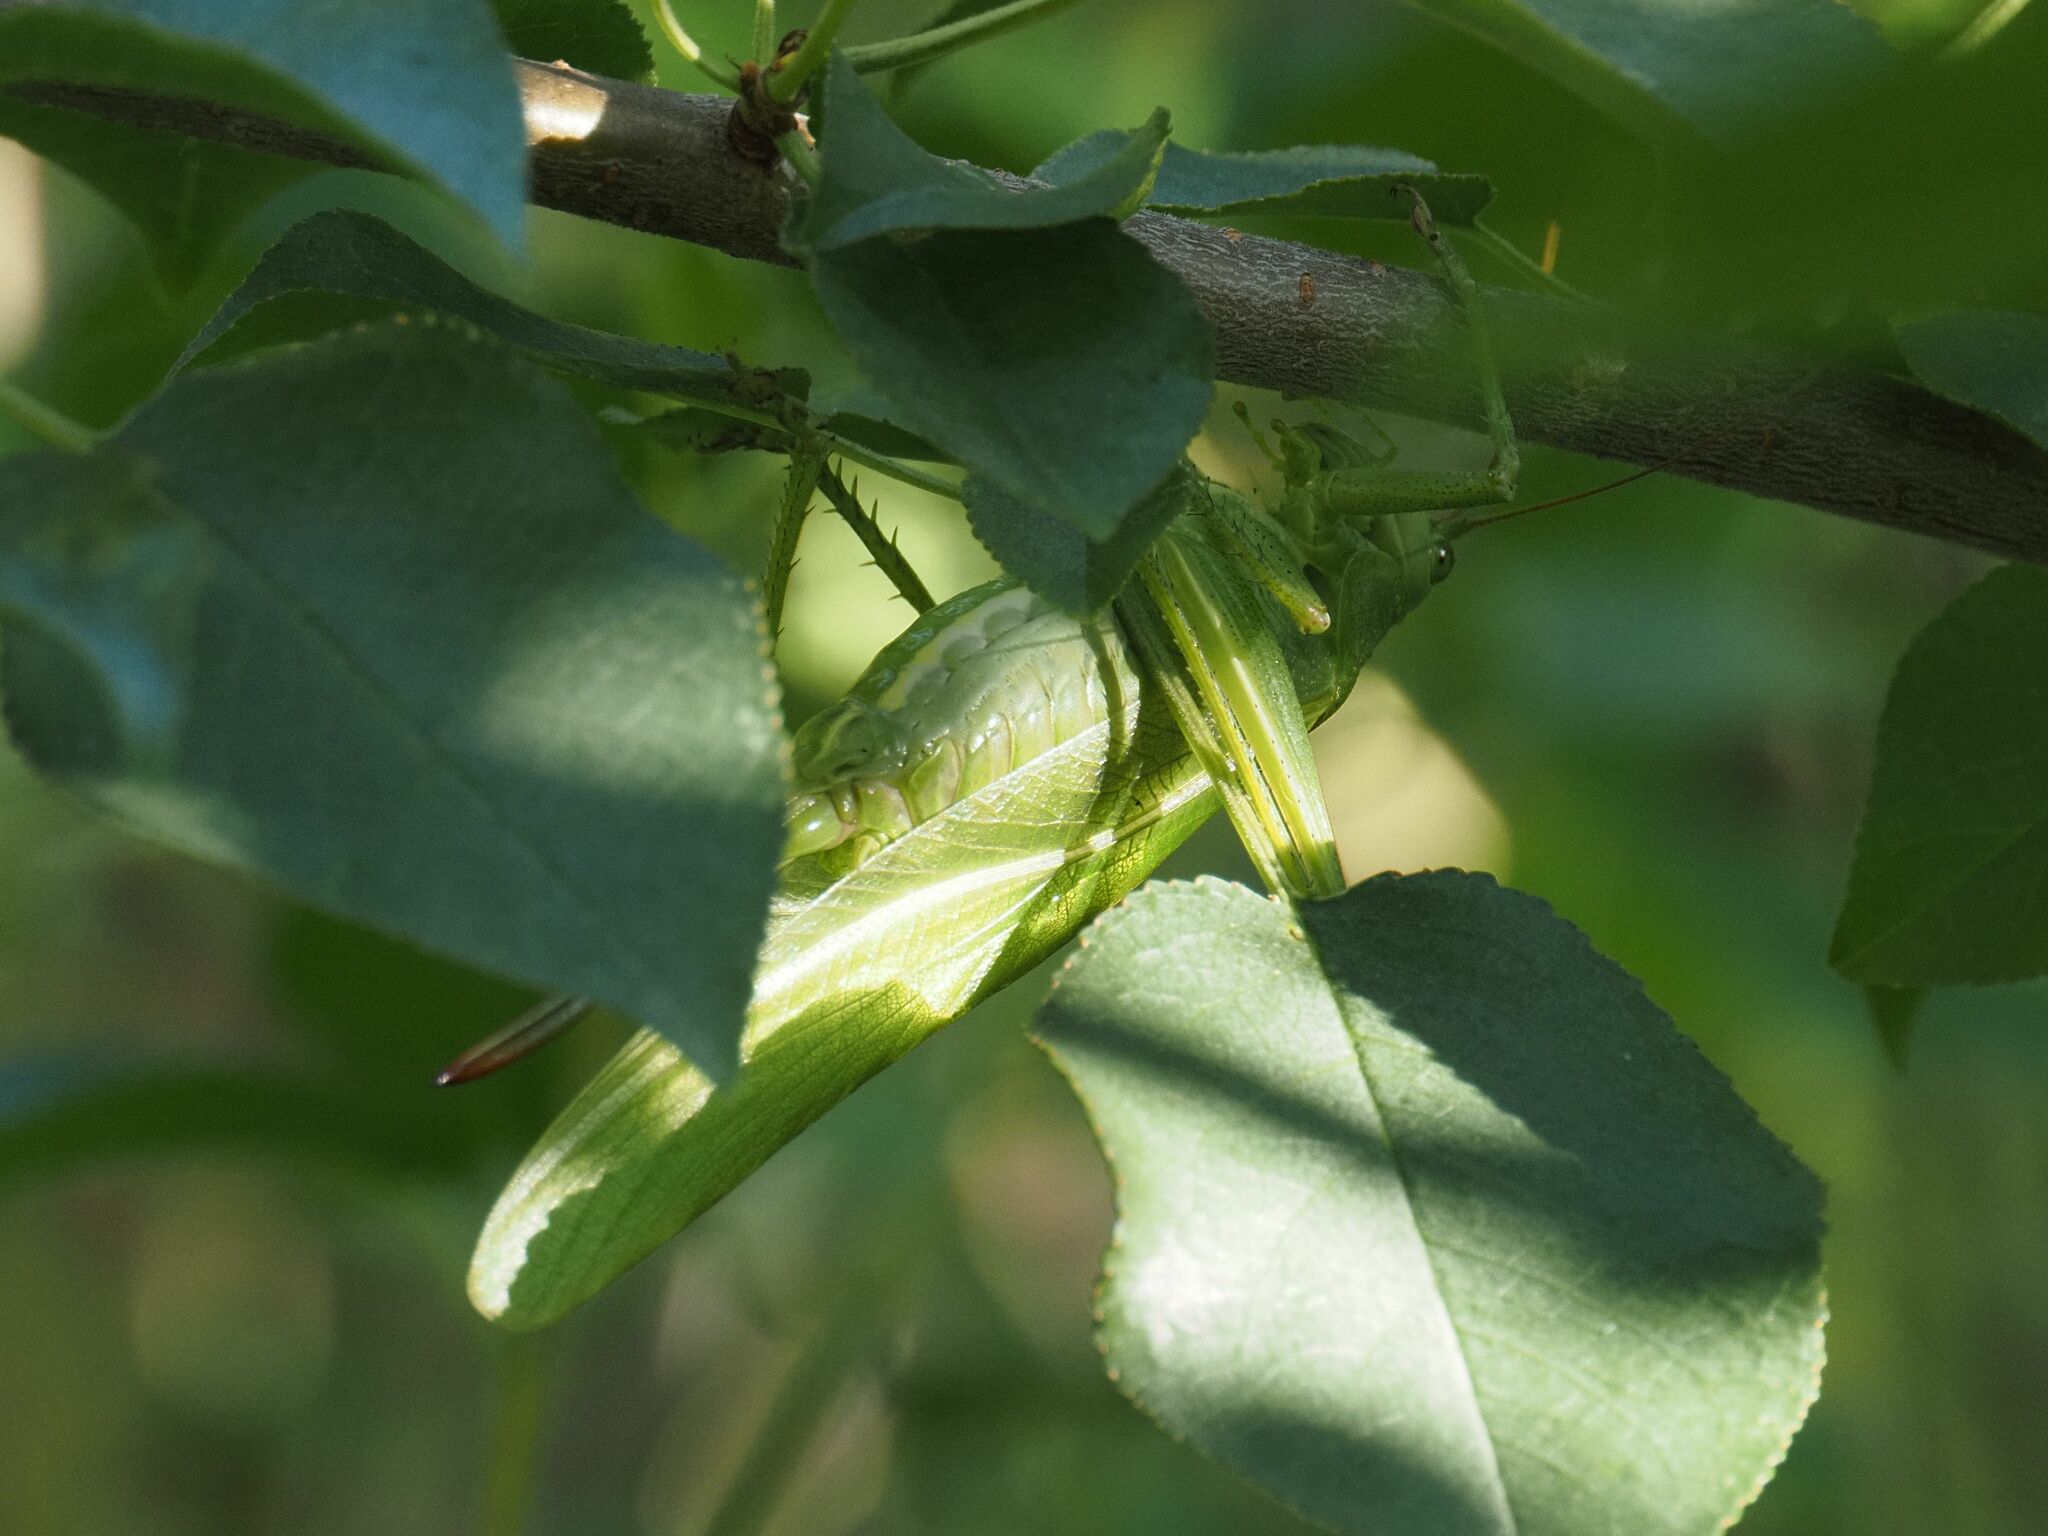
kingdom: Animalia
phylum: Arthropoda
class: Insecta
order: Orthoptera
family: Tettigoniidae
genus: Tettigonia
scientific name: Tettigonia viridissima
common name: Great green bush-cricket
